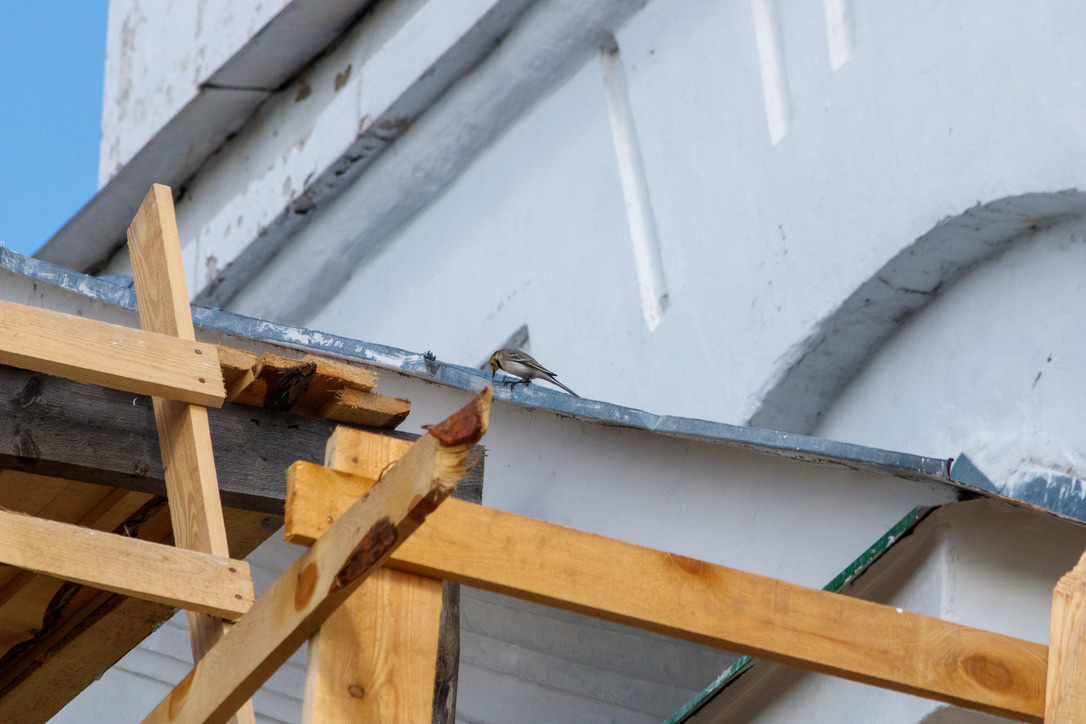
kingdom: Animalia
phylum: Chordata
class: Aves
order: Passeriformes
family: Motacillidae
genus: Motacilla
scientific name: Motacilla alba
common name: White wagtail
